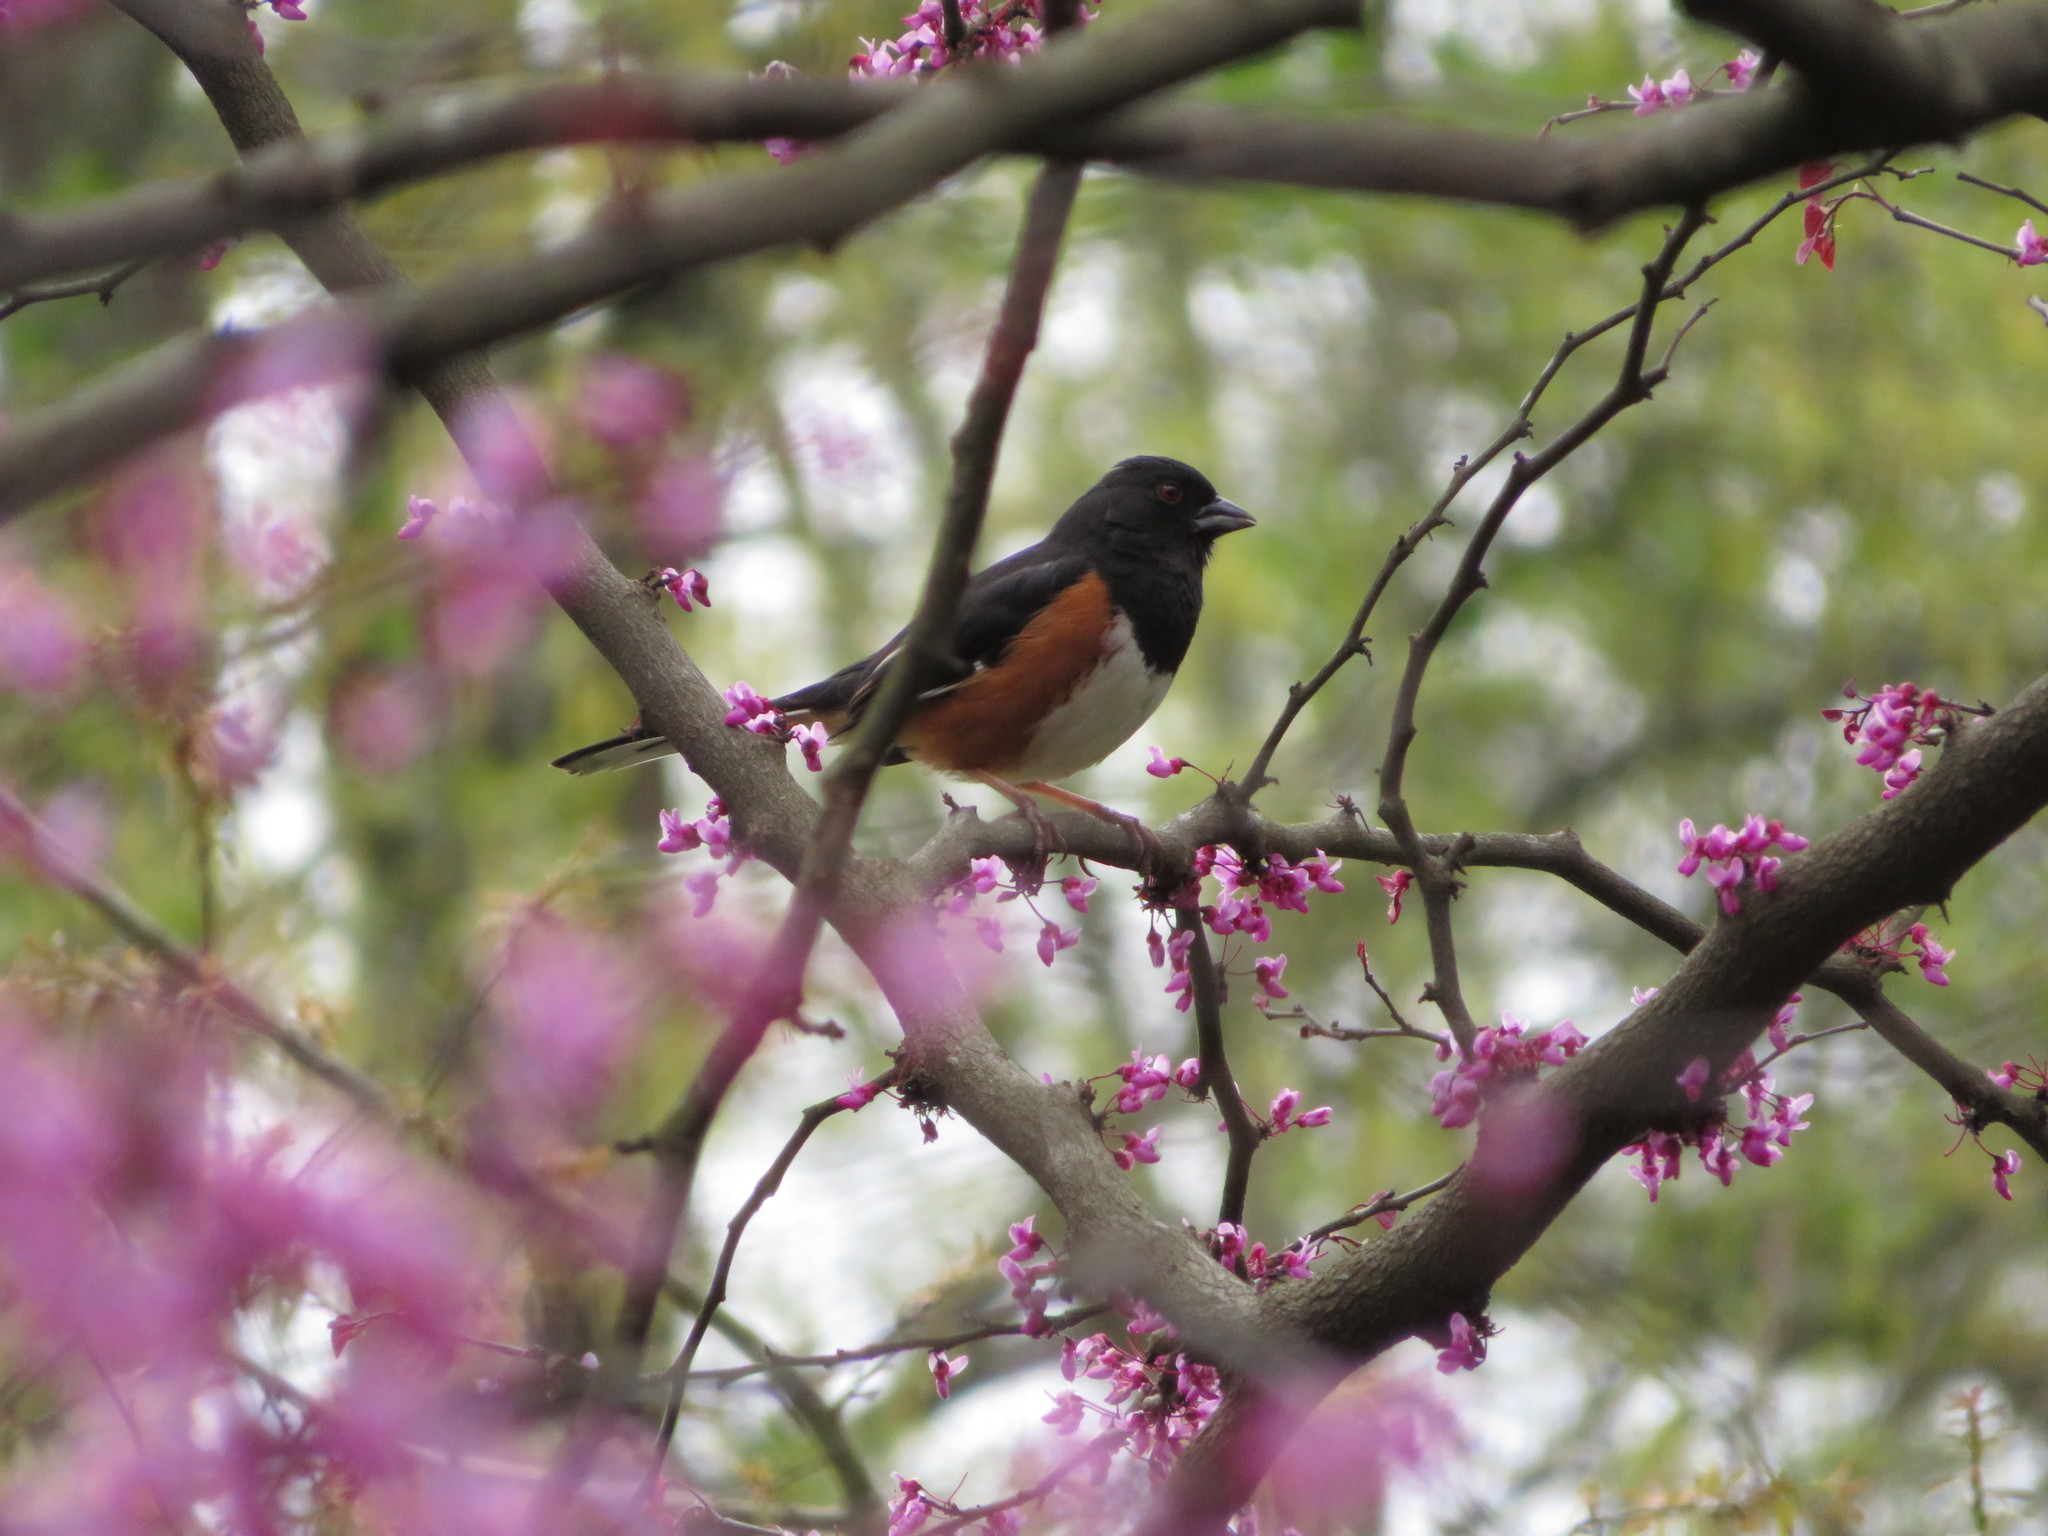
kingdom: Animalia
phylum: Chordata
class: Aves
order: Passeriformes
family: Passerellidae
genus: Pipilo
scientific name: Pipilo erythrophthalmus
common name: Eastern towhee
